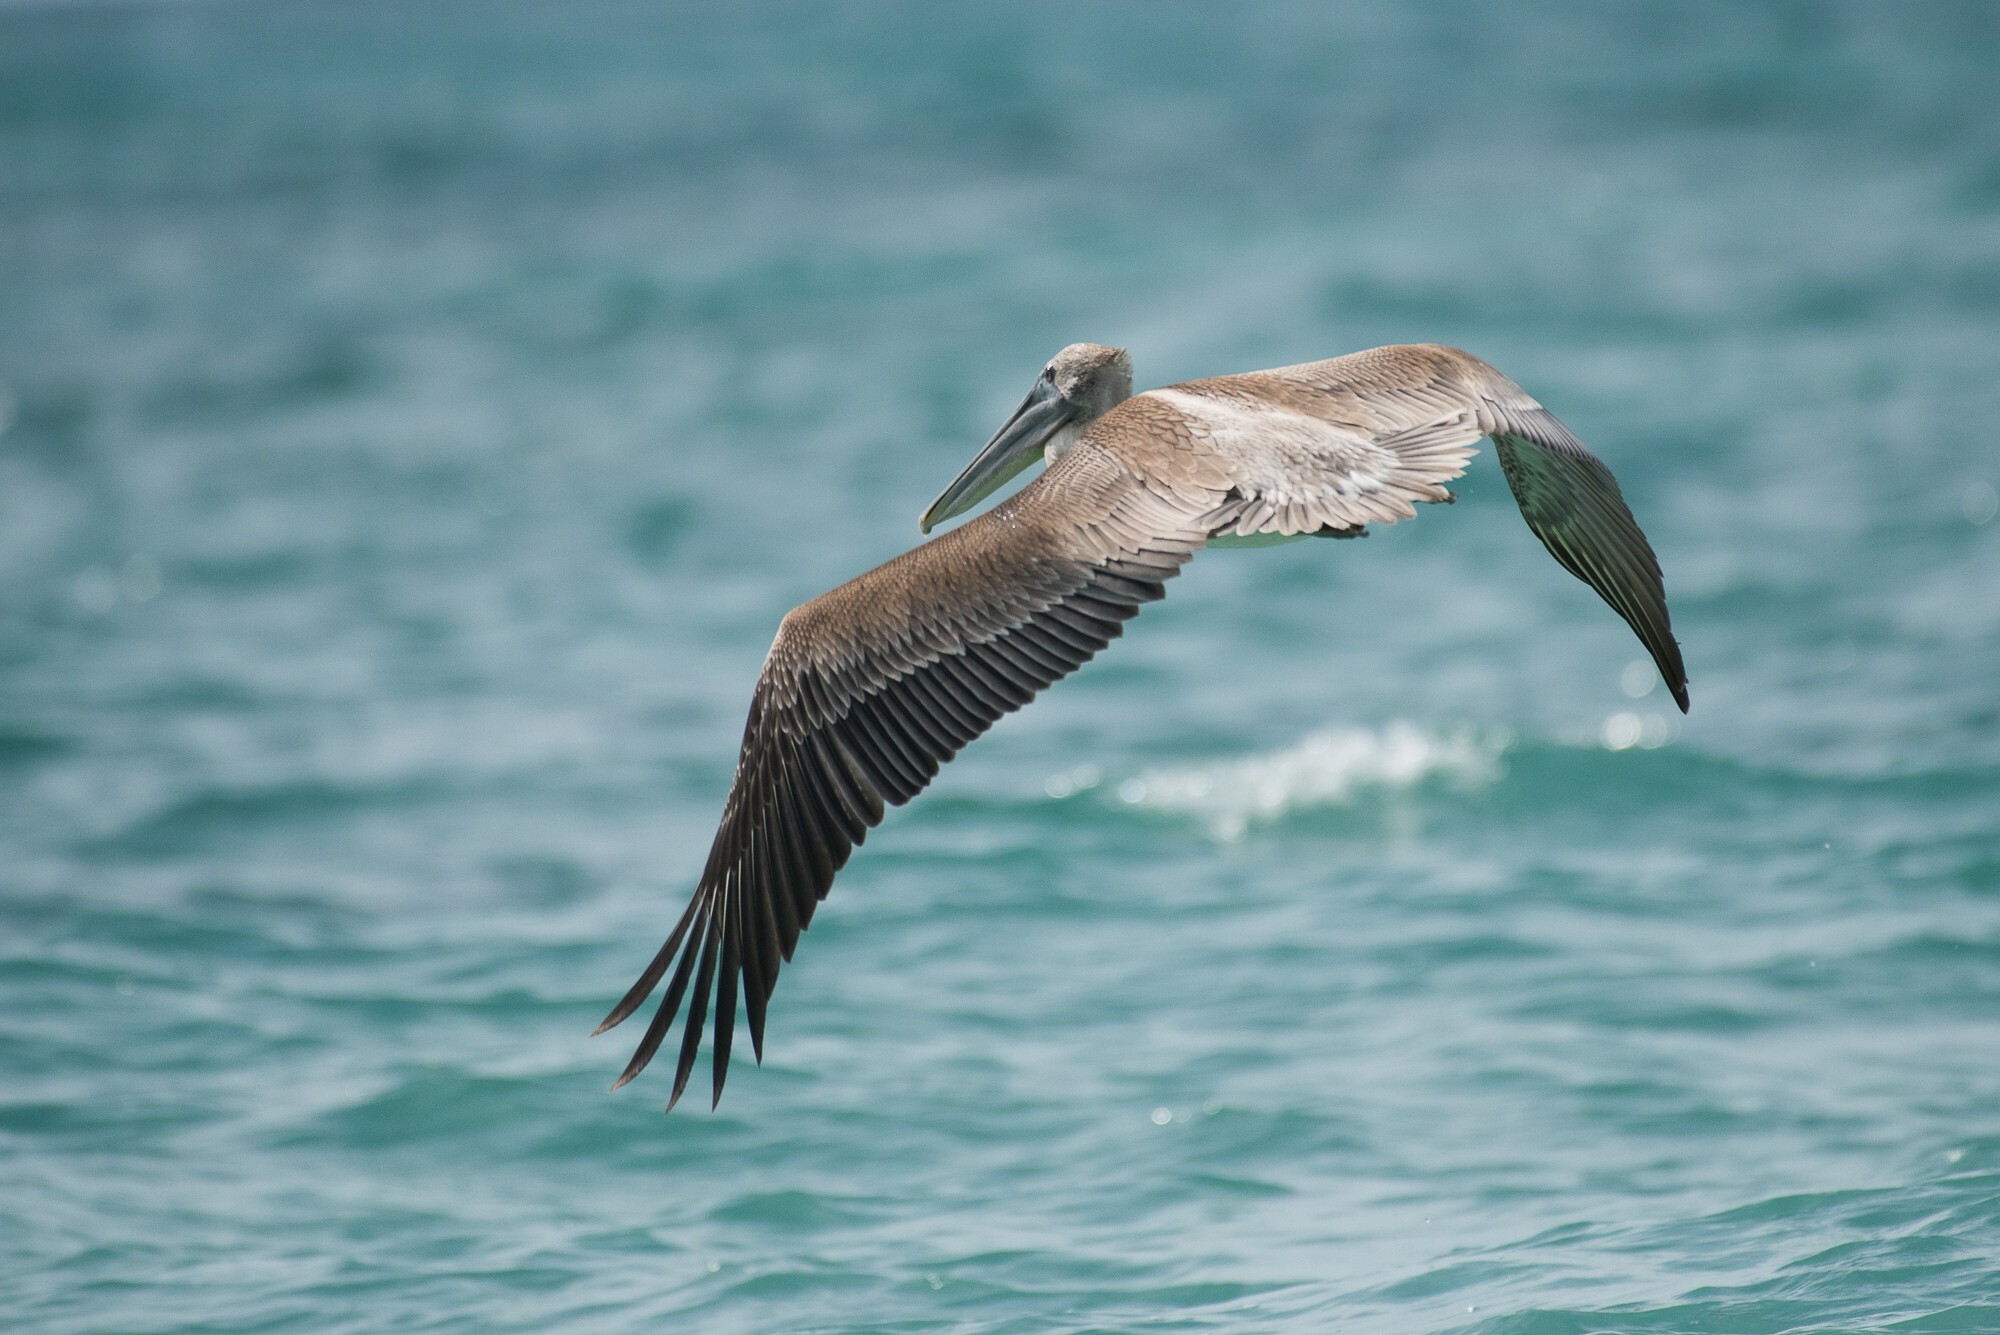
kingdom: Animalia
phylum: Chordata
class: Aves
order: Pelecaniformes
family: Pelecanidae
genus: Pelecanus
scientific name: Pelecanus occidentalis
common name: Brown pelican
